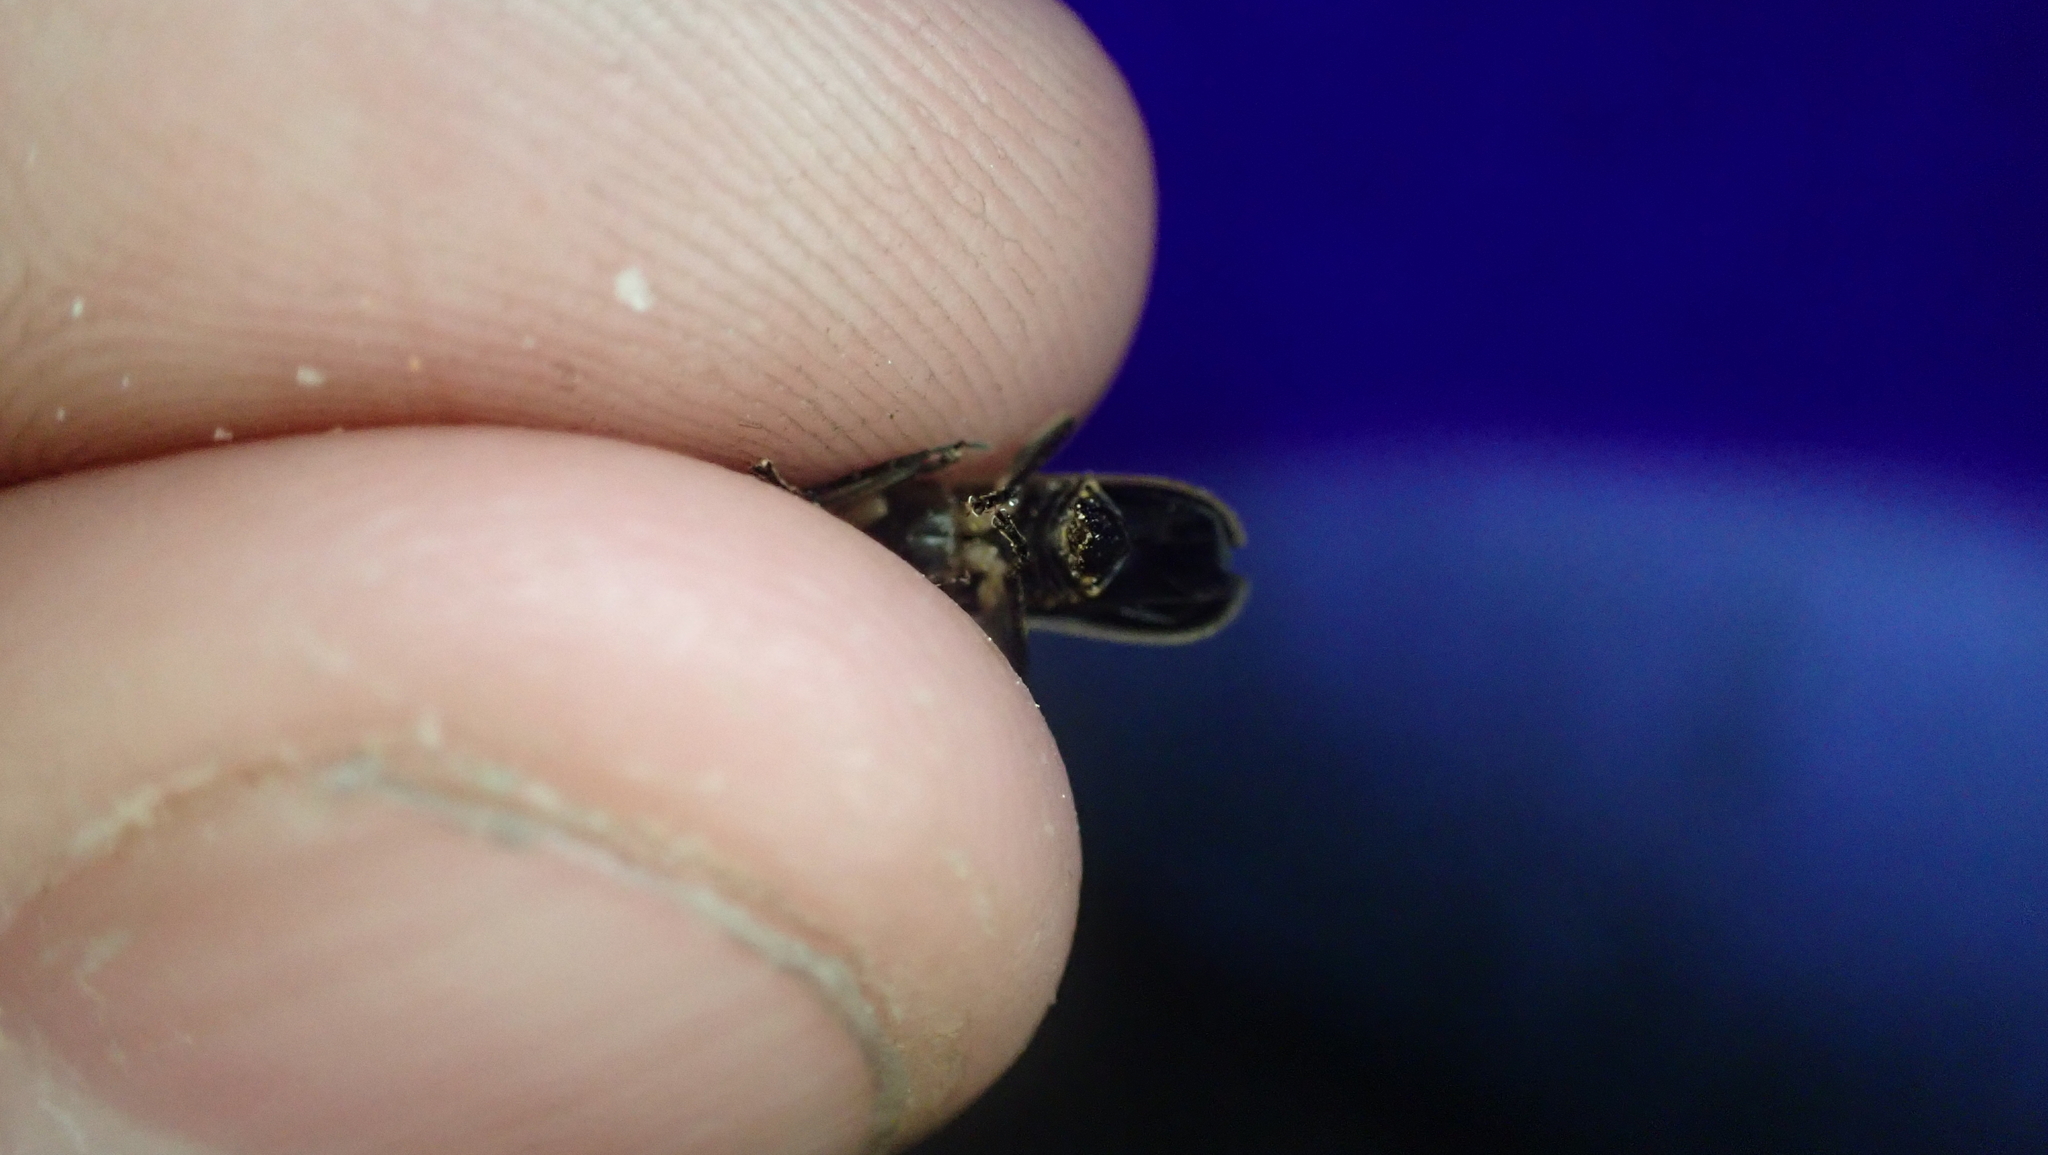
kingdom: Animalia
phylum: Arthropoda
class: Insecta
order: Coleoptera
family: Cantharidae
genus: Podabrus
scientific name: Podabrus flavicollis
